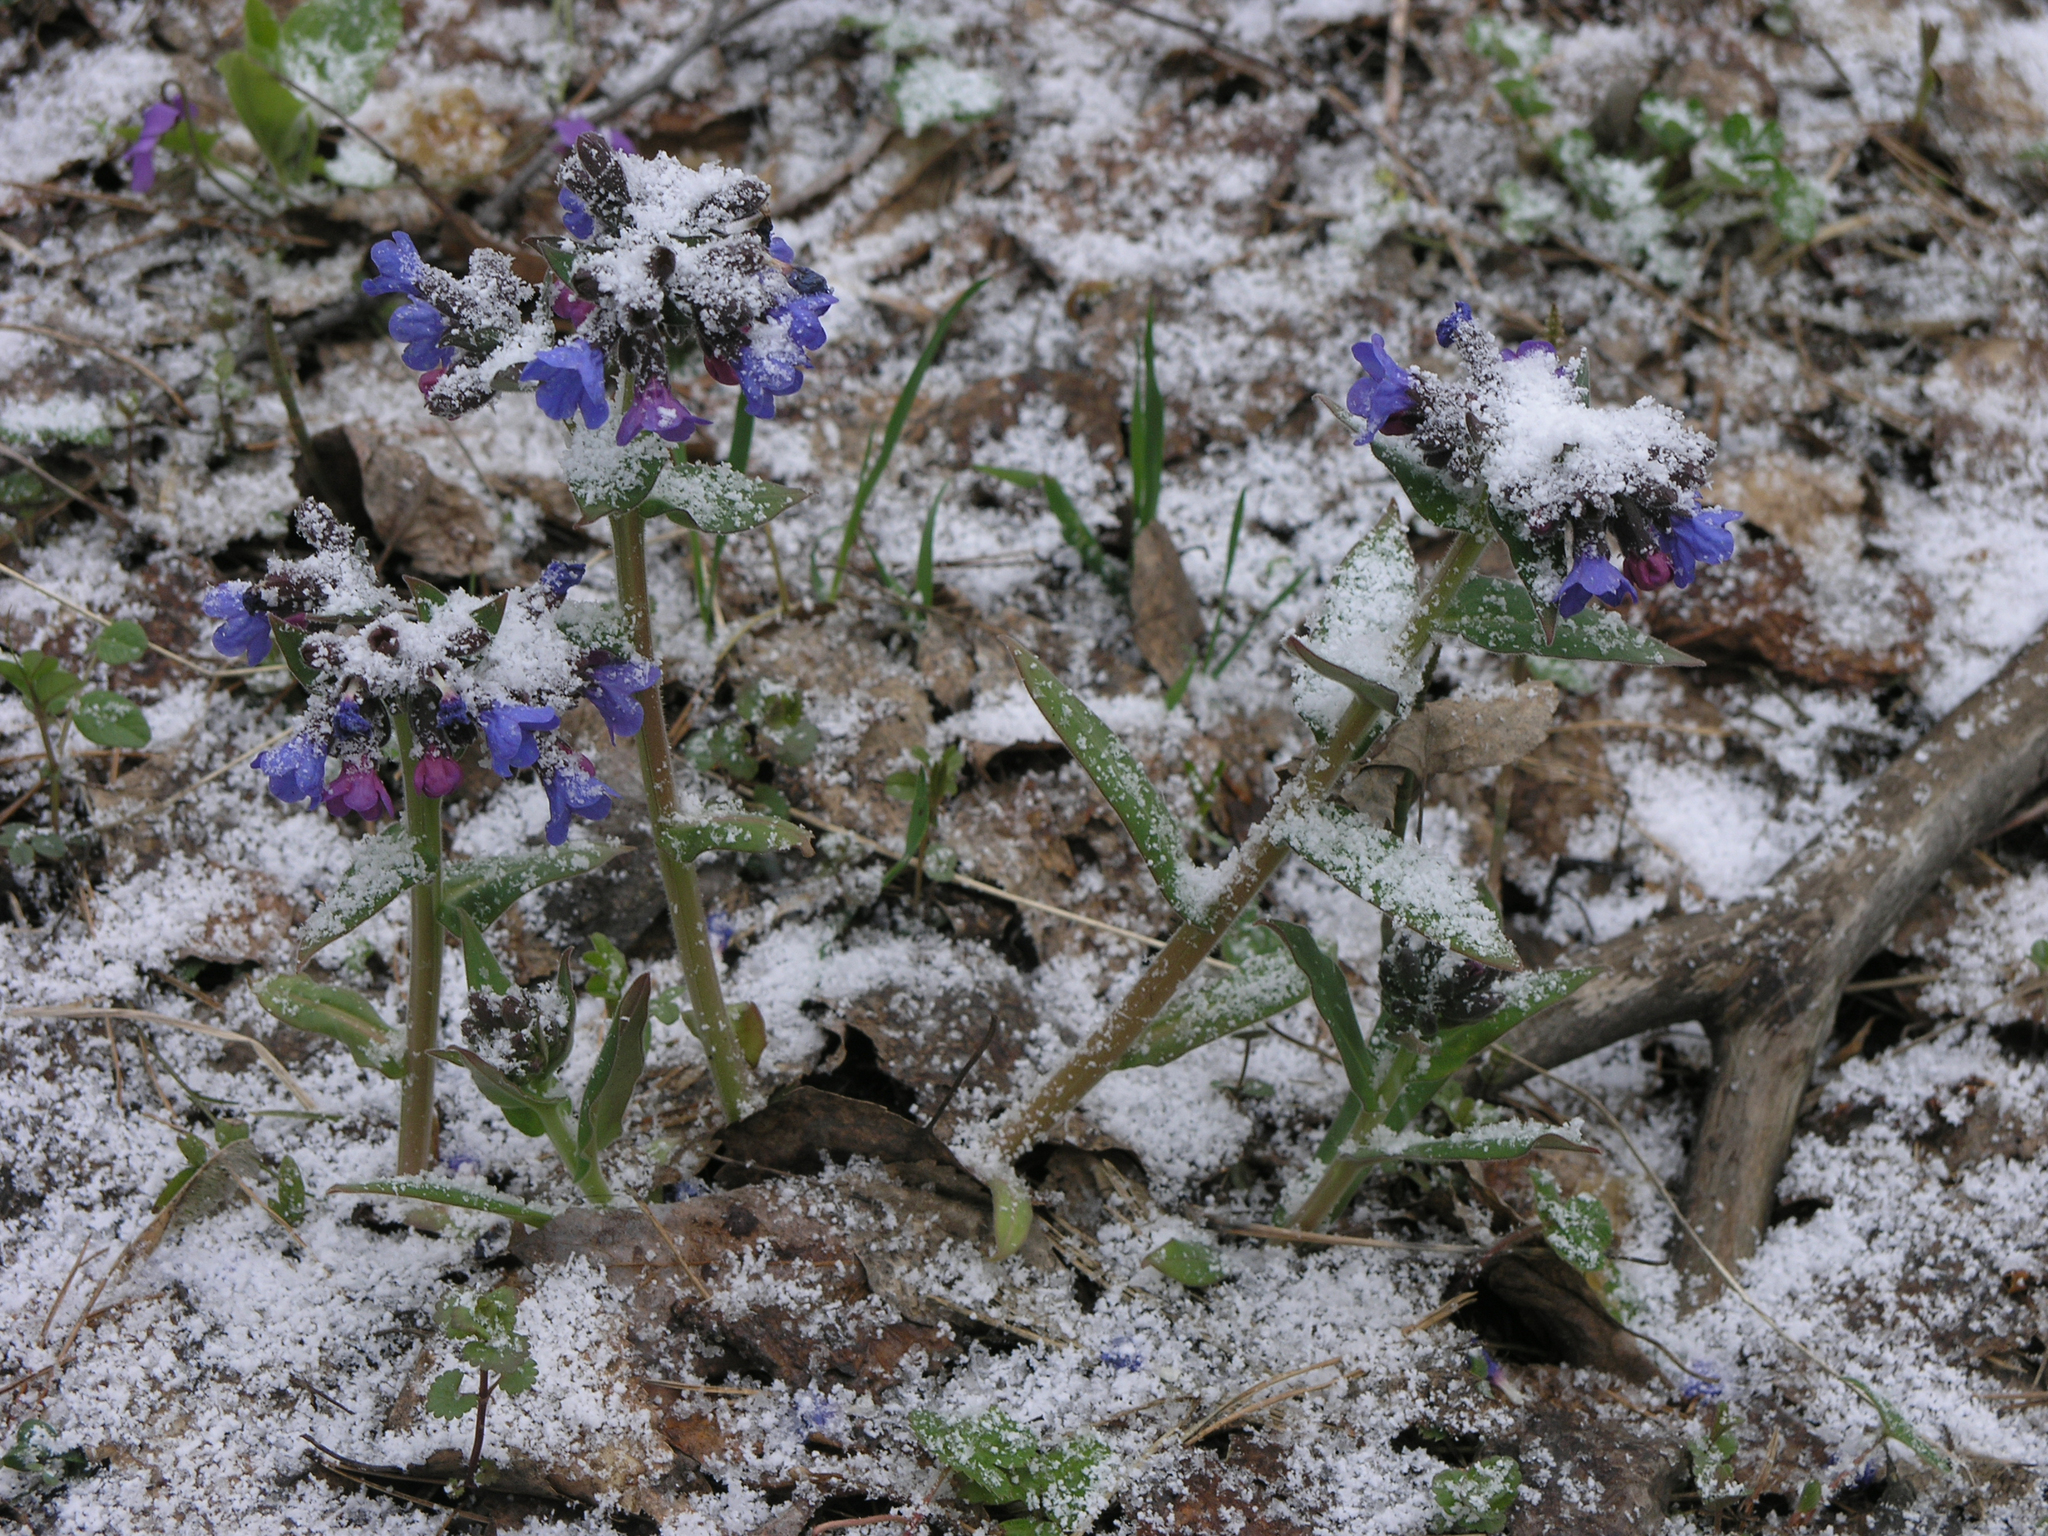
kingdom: Plantae
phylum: Tracheophyta
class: Magnoliopsida
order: Boraginales
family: Boraginaceae
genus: Pulmonaria
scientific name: Pulmonaria mollis
